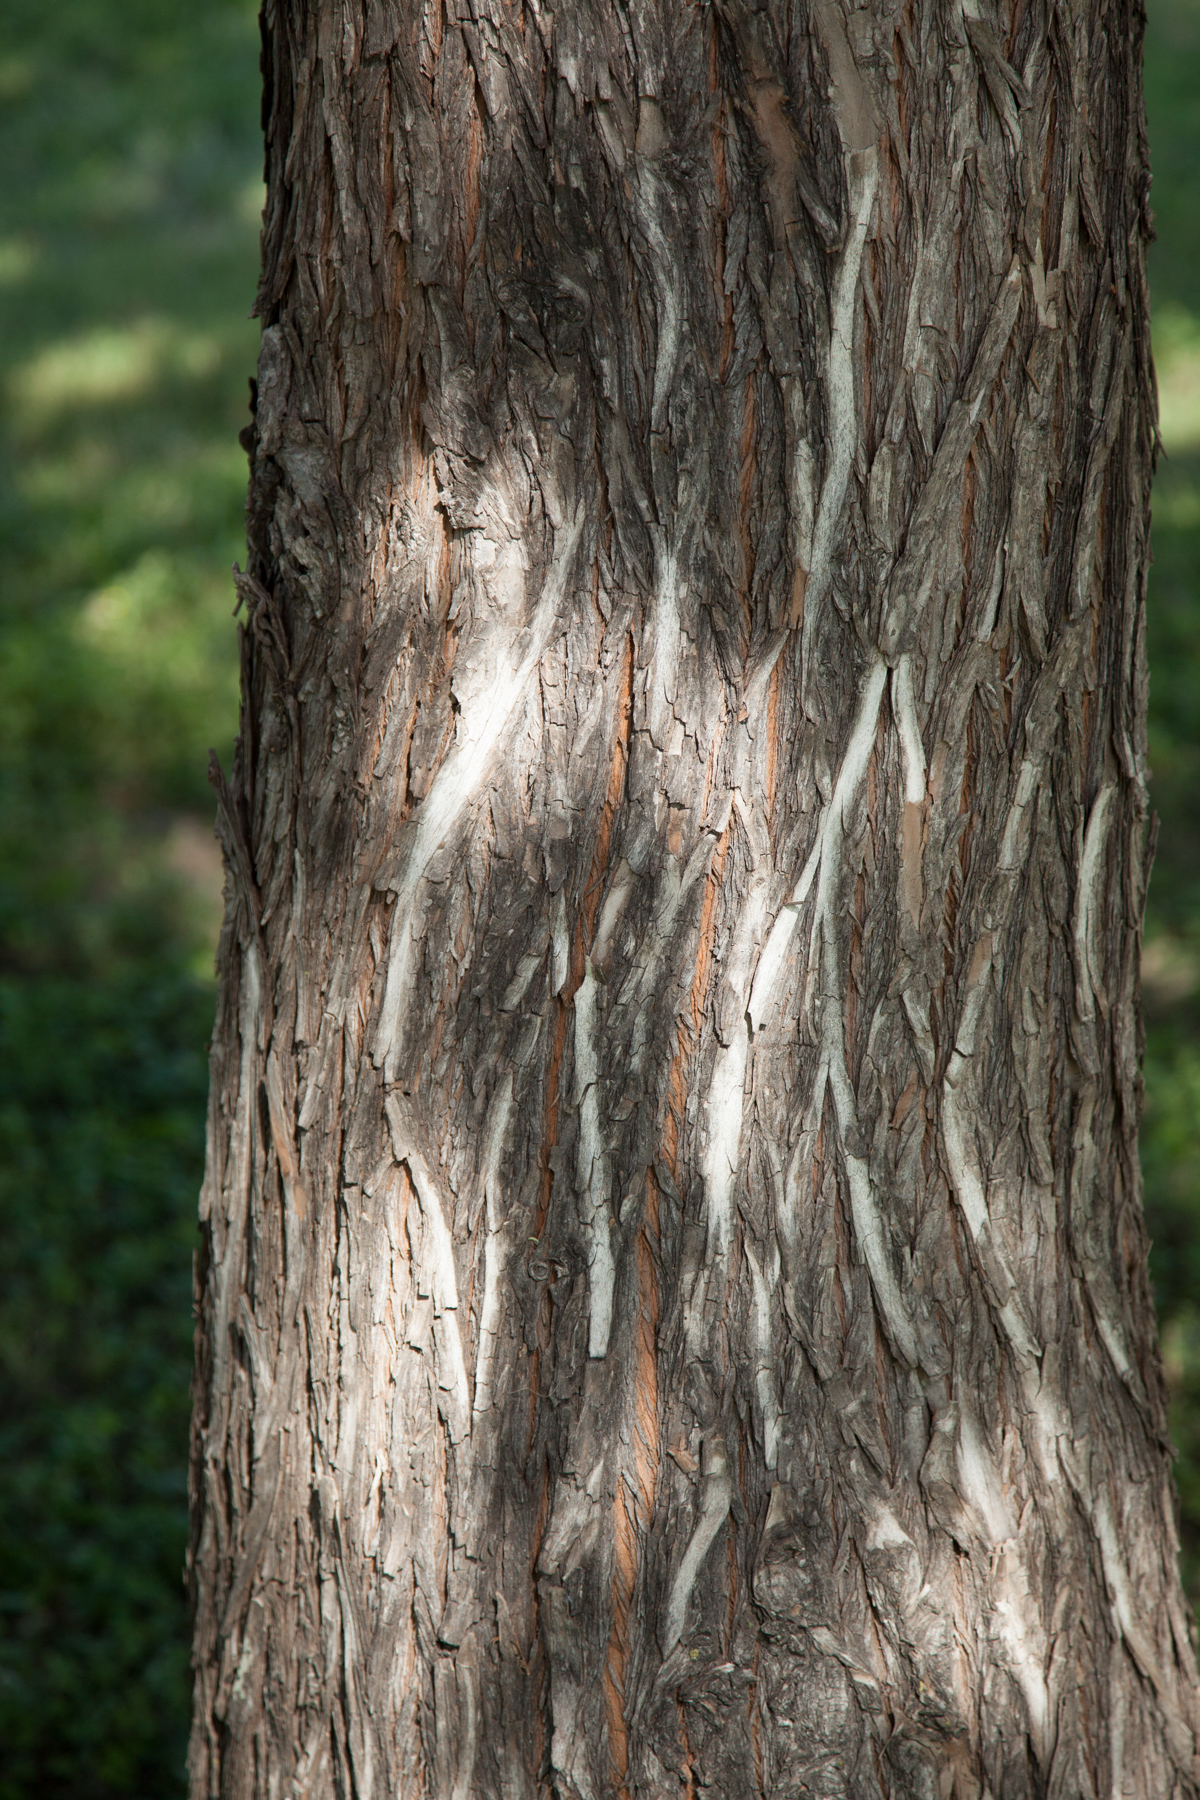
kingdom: Plantae
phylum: Tracheophyta
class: Pinopsida
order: Pinales
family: Cupressaceae
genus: Taxodium
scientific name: Taxodium distichum
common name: Bald cypress
